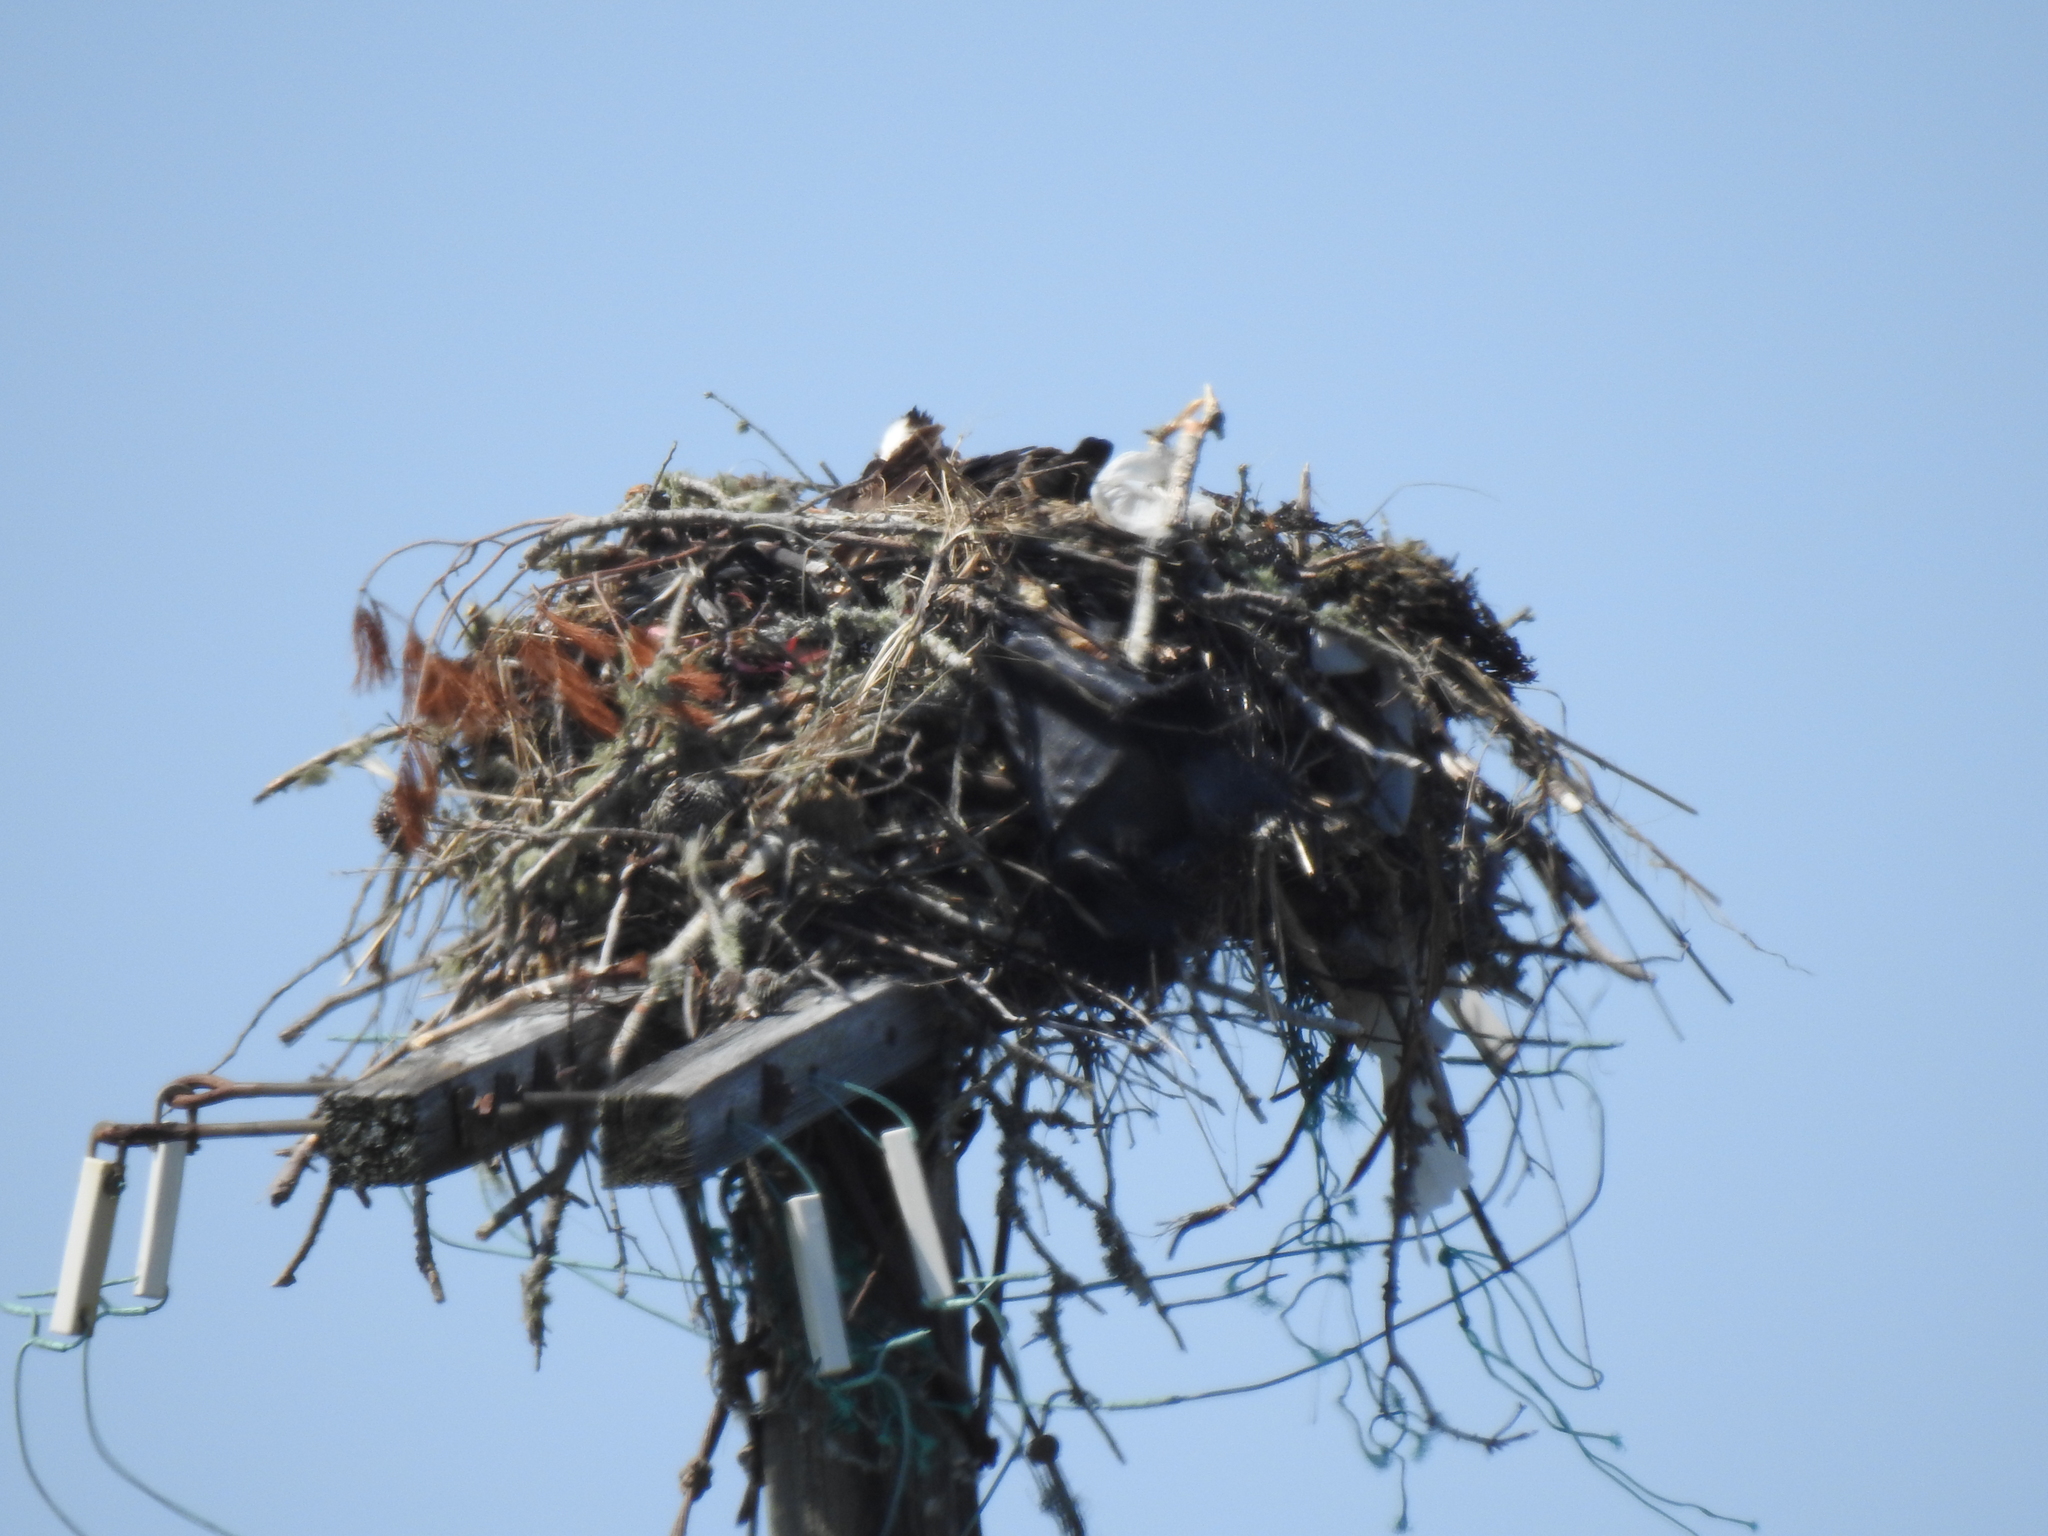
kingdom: Animalia
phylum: Chordata
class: Aves
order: Accipitriformes
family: Pandionidae
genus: Pandion
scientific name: Pandion haliaetus
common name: Osprey
